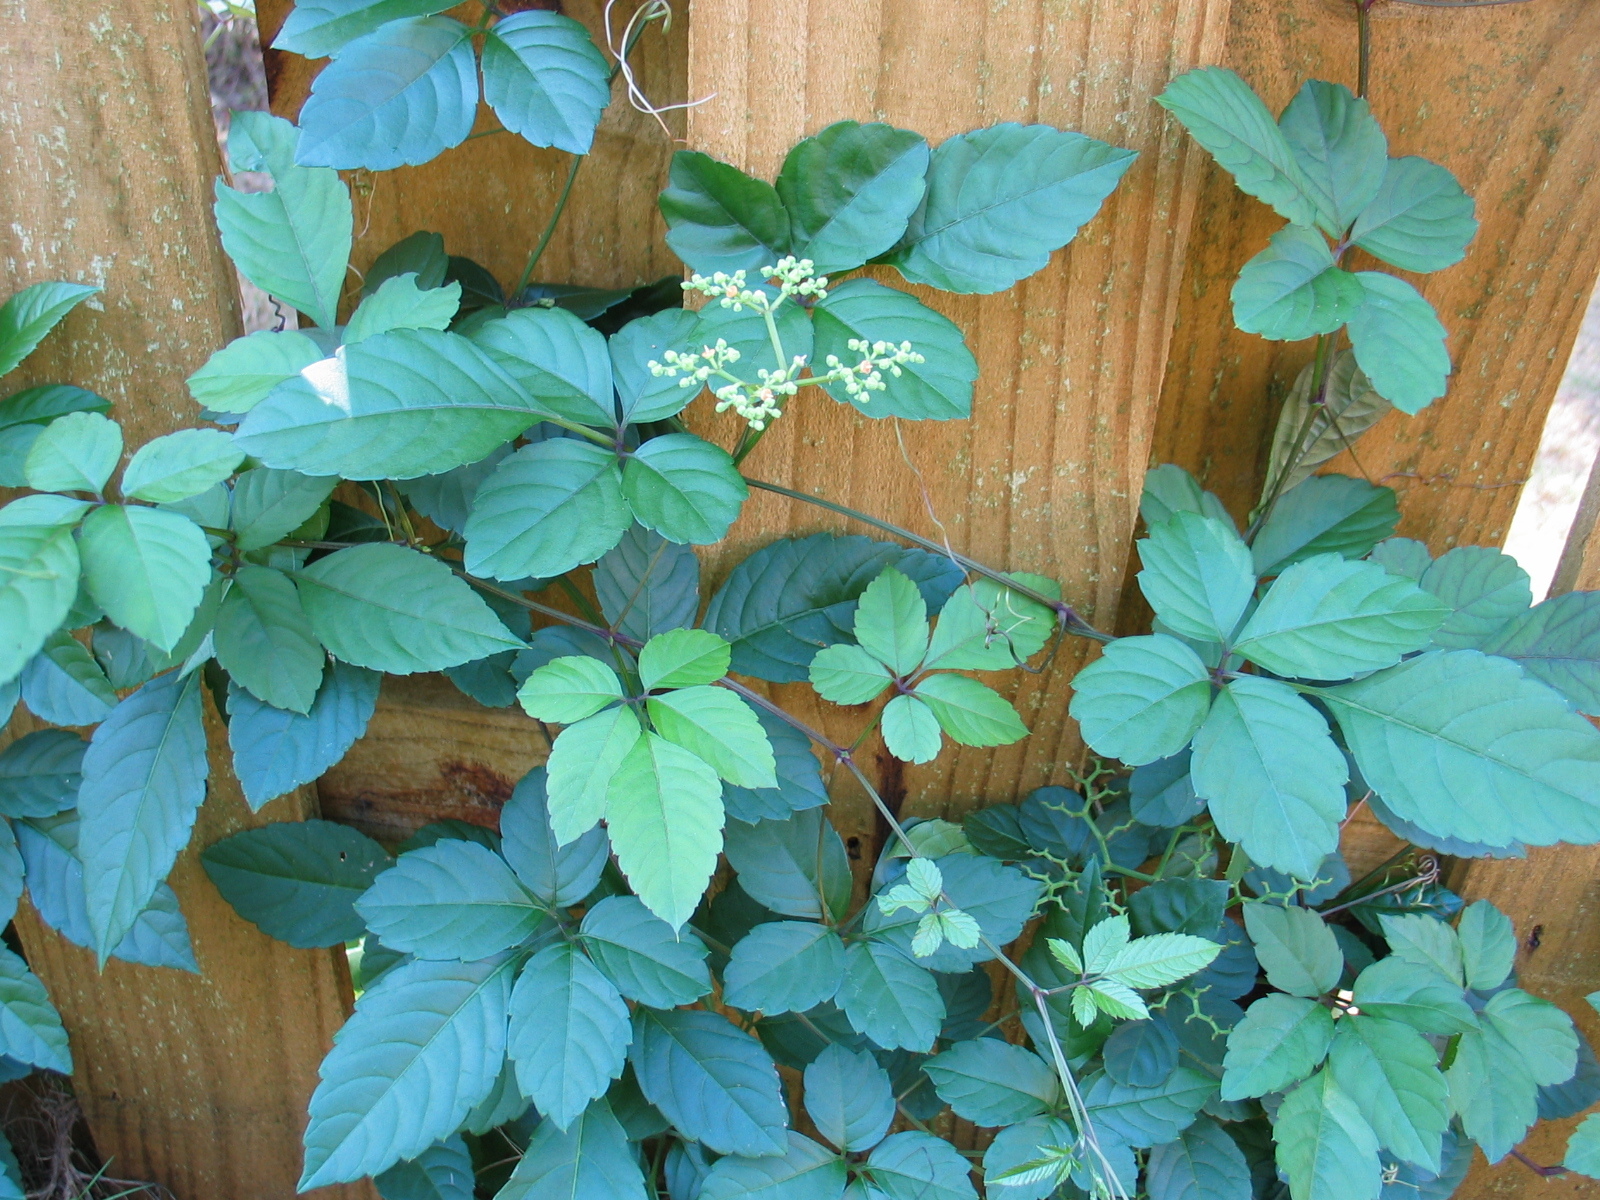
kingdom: Plantae
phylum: Tracheophyta
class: Magnoliopsida
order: Vitales
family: Vitaceae
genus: Causonis
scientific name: Causonis japonica
